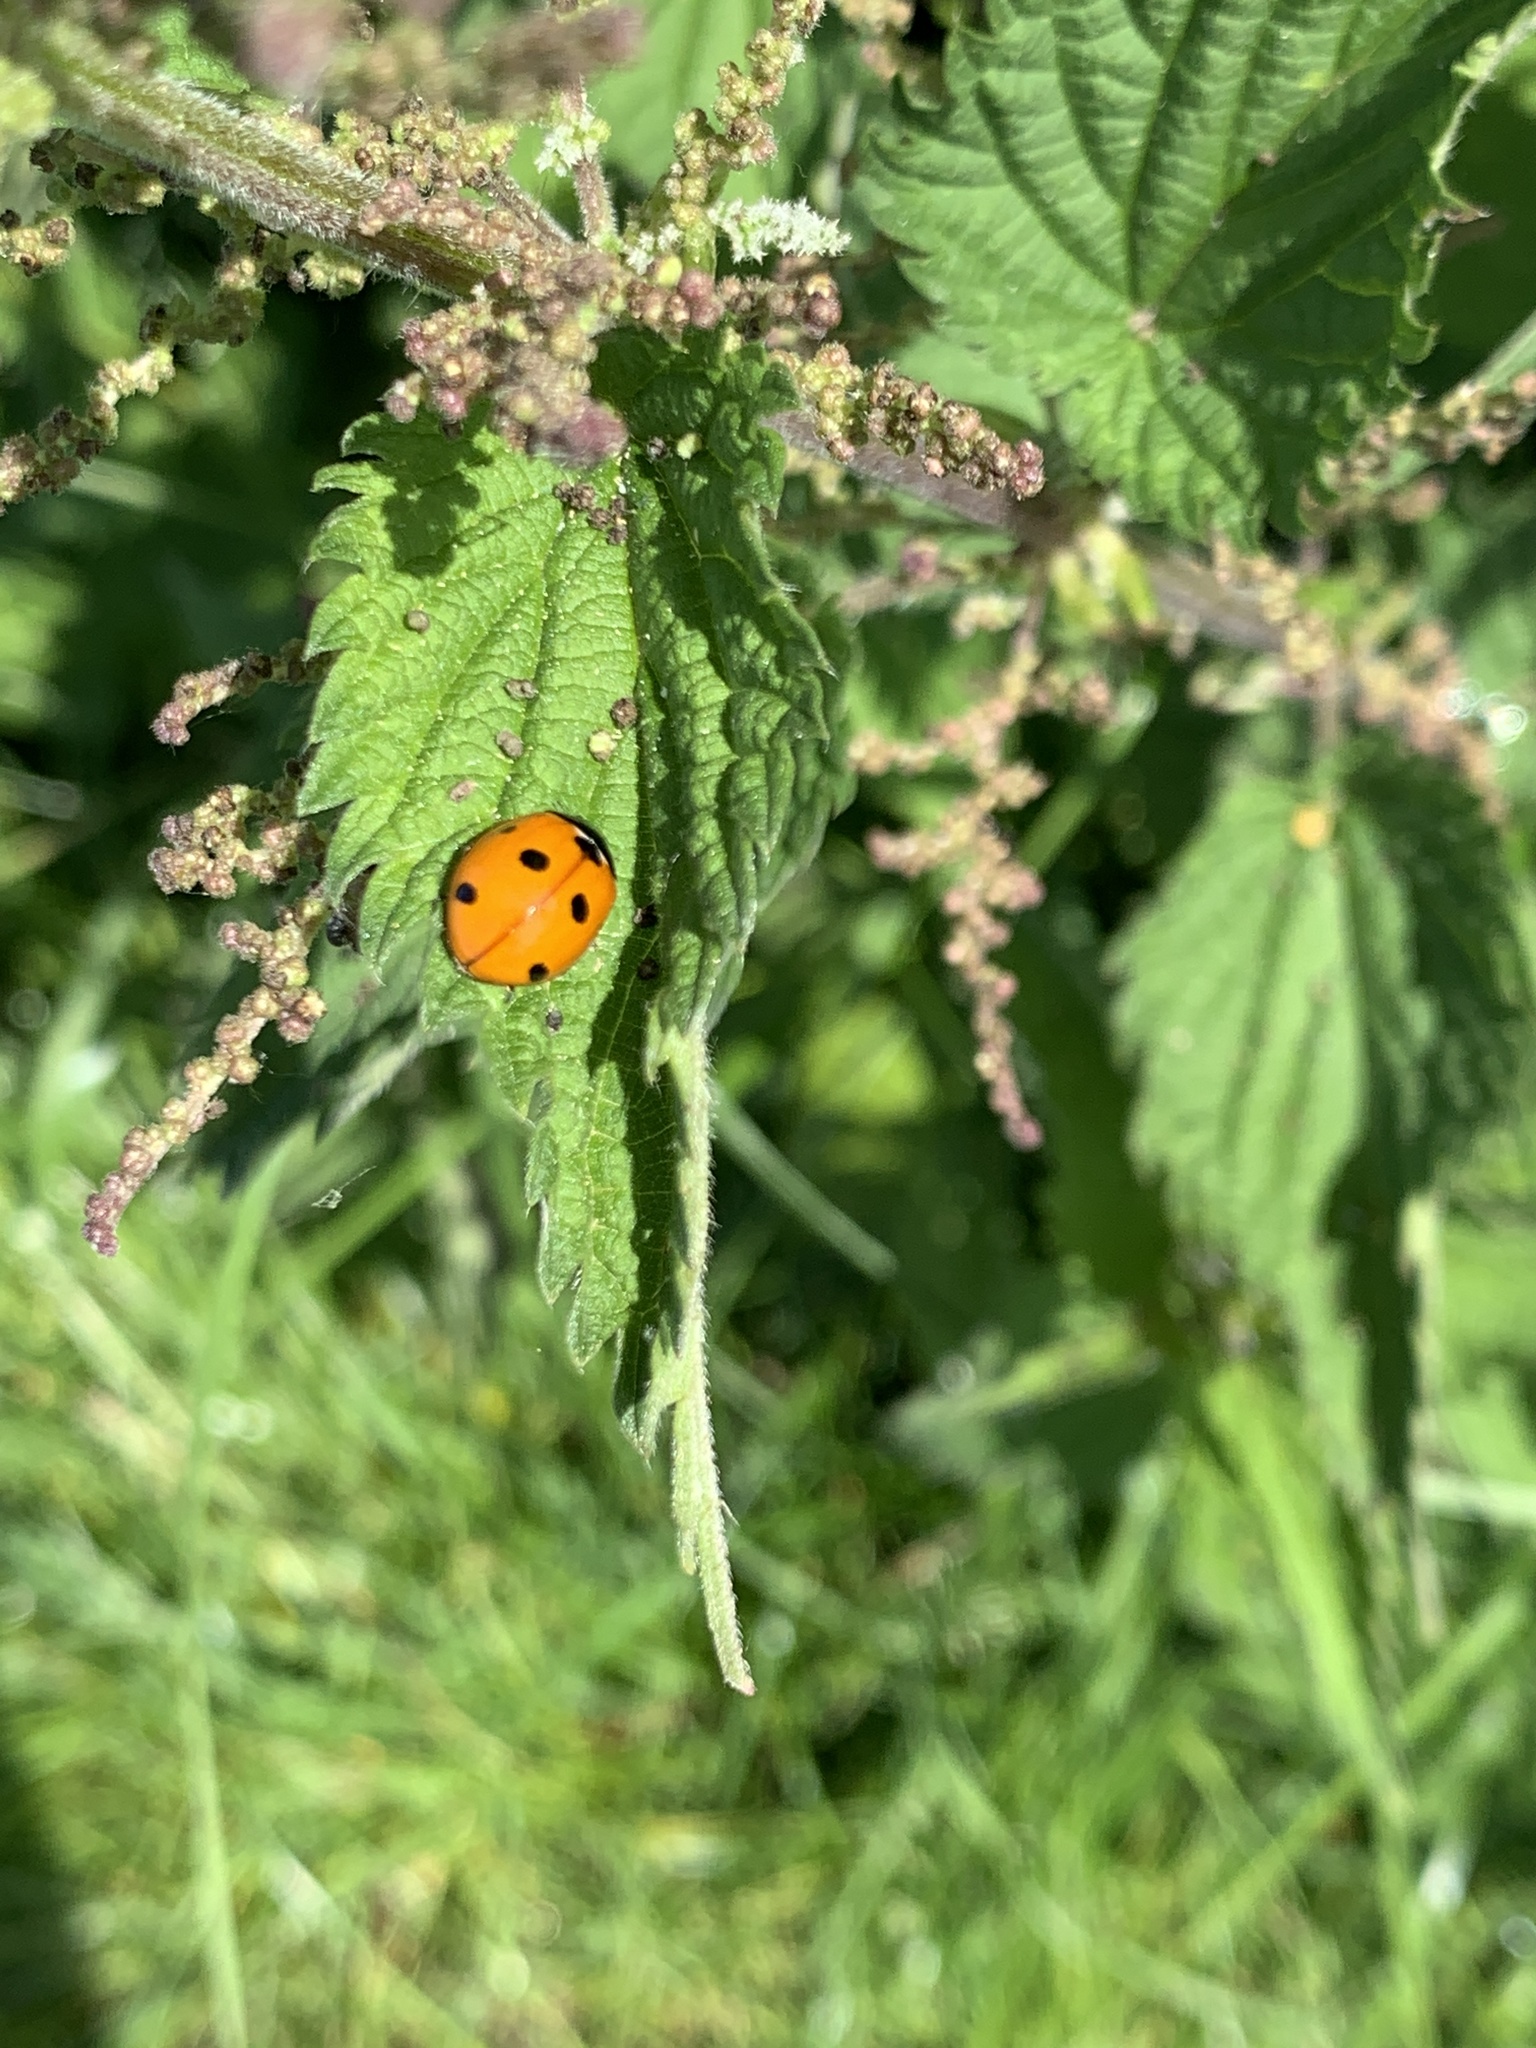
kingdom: Animalia
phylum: Arthropoda
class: Insecta
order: Coleoptera
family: Coccinellidae
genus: Coccinella
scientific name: Coccinella septempunctata
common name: Sevenspotted lady beetle
